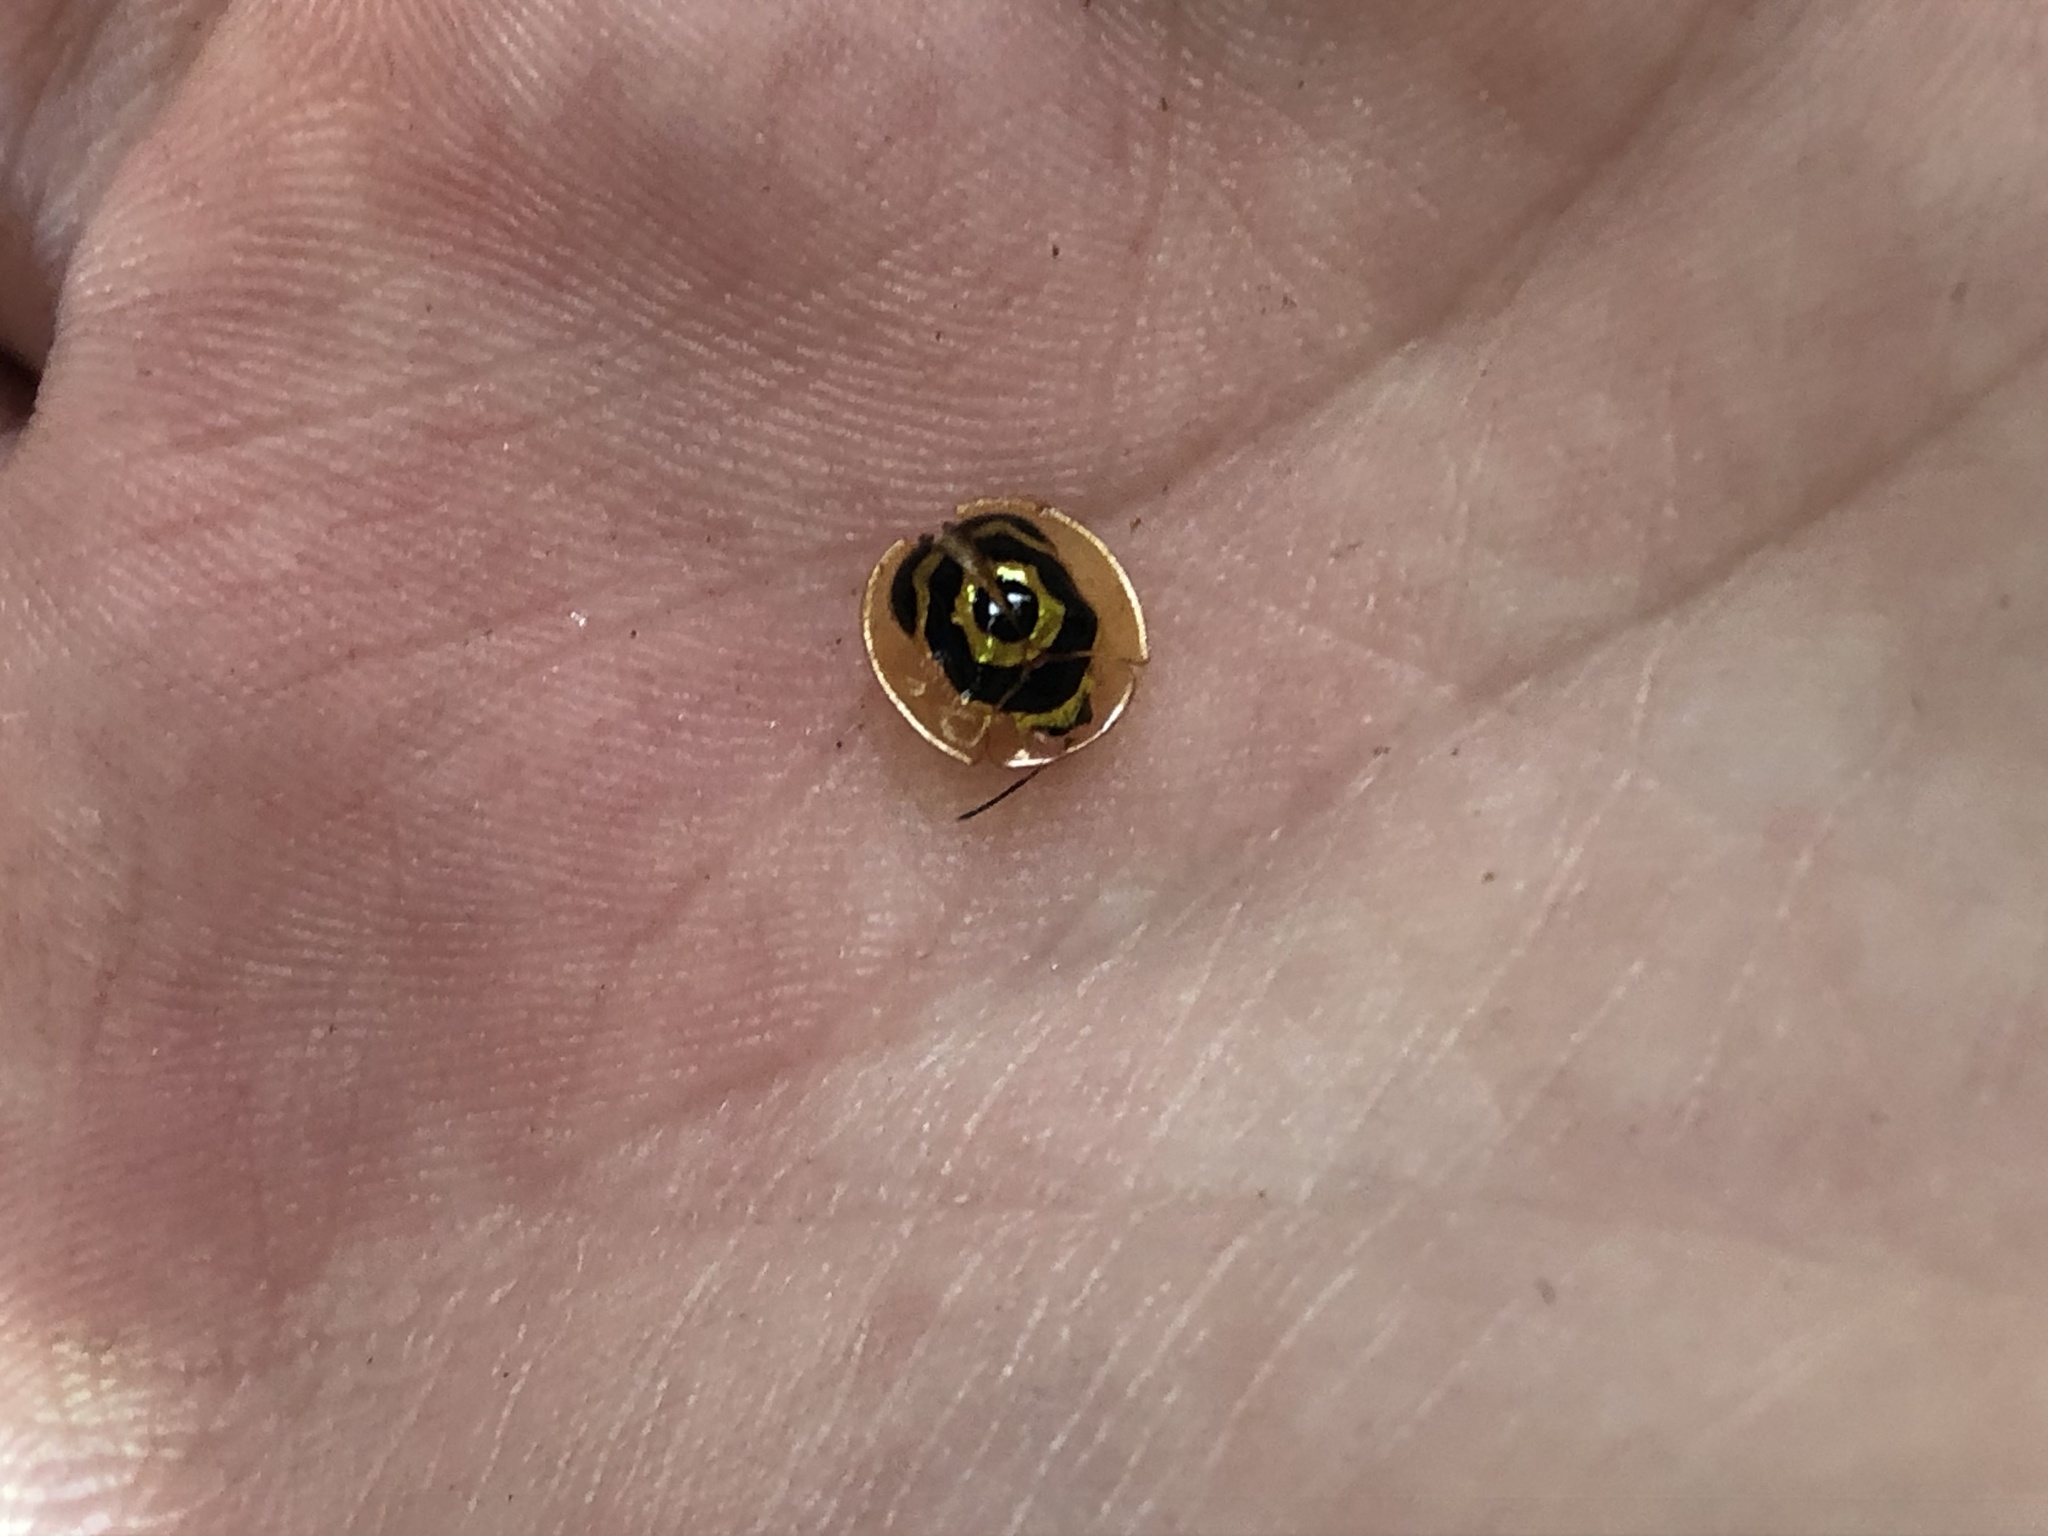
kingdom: Animalia
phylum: Arthropoda
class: Insecta
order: Coleoptera
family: Chrysomelidae
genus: Ischnocodia
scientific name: Ischnocodia annulus
